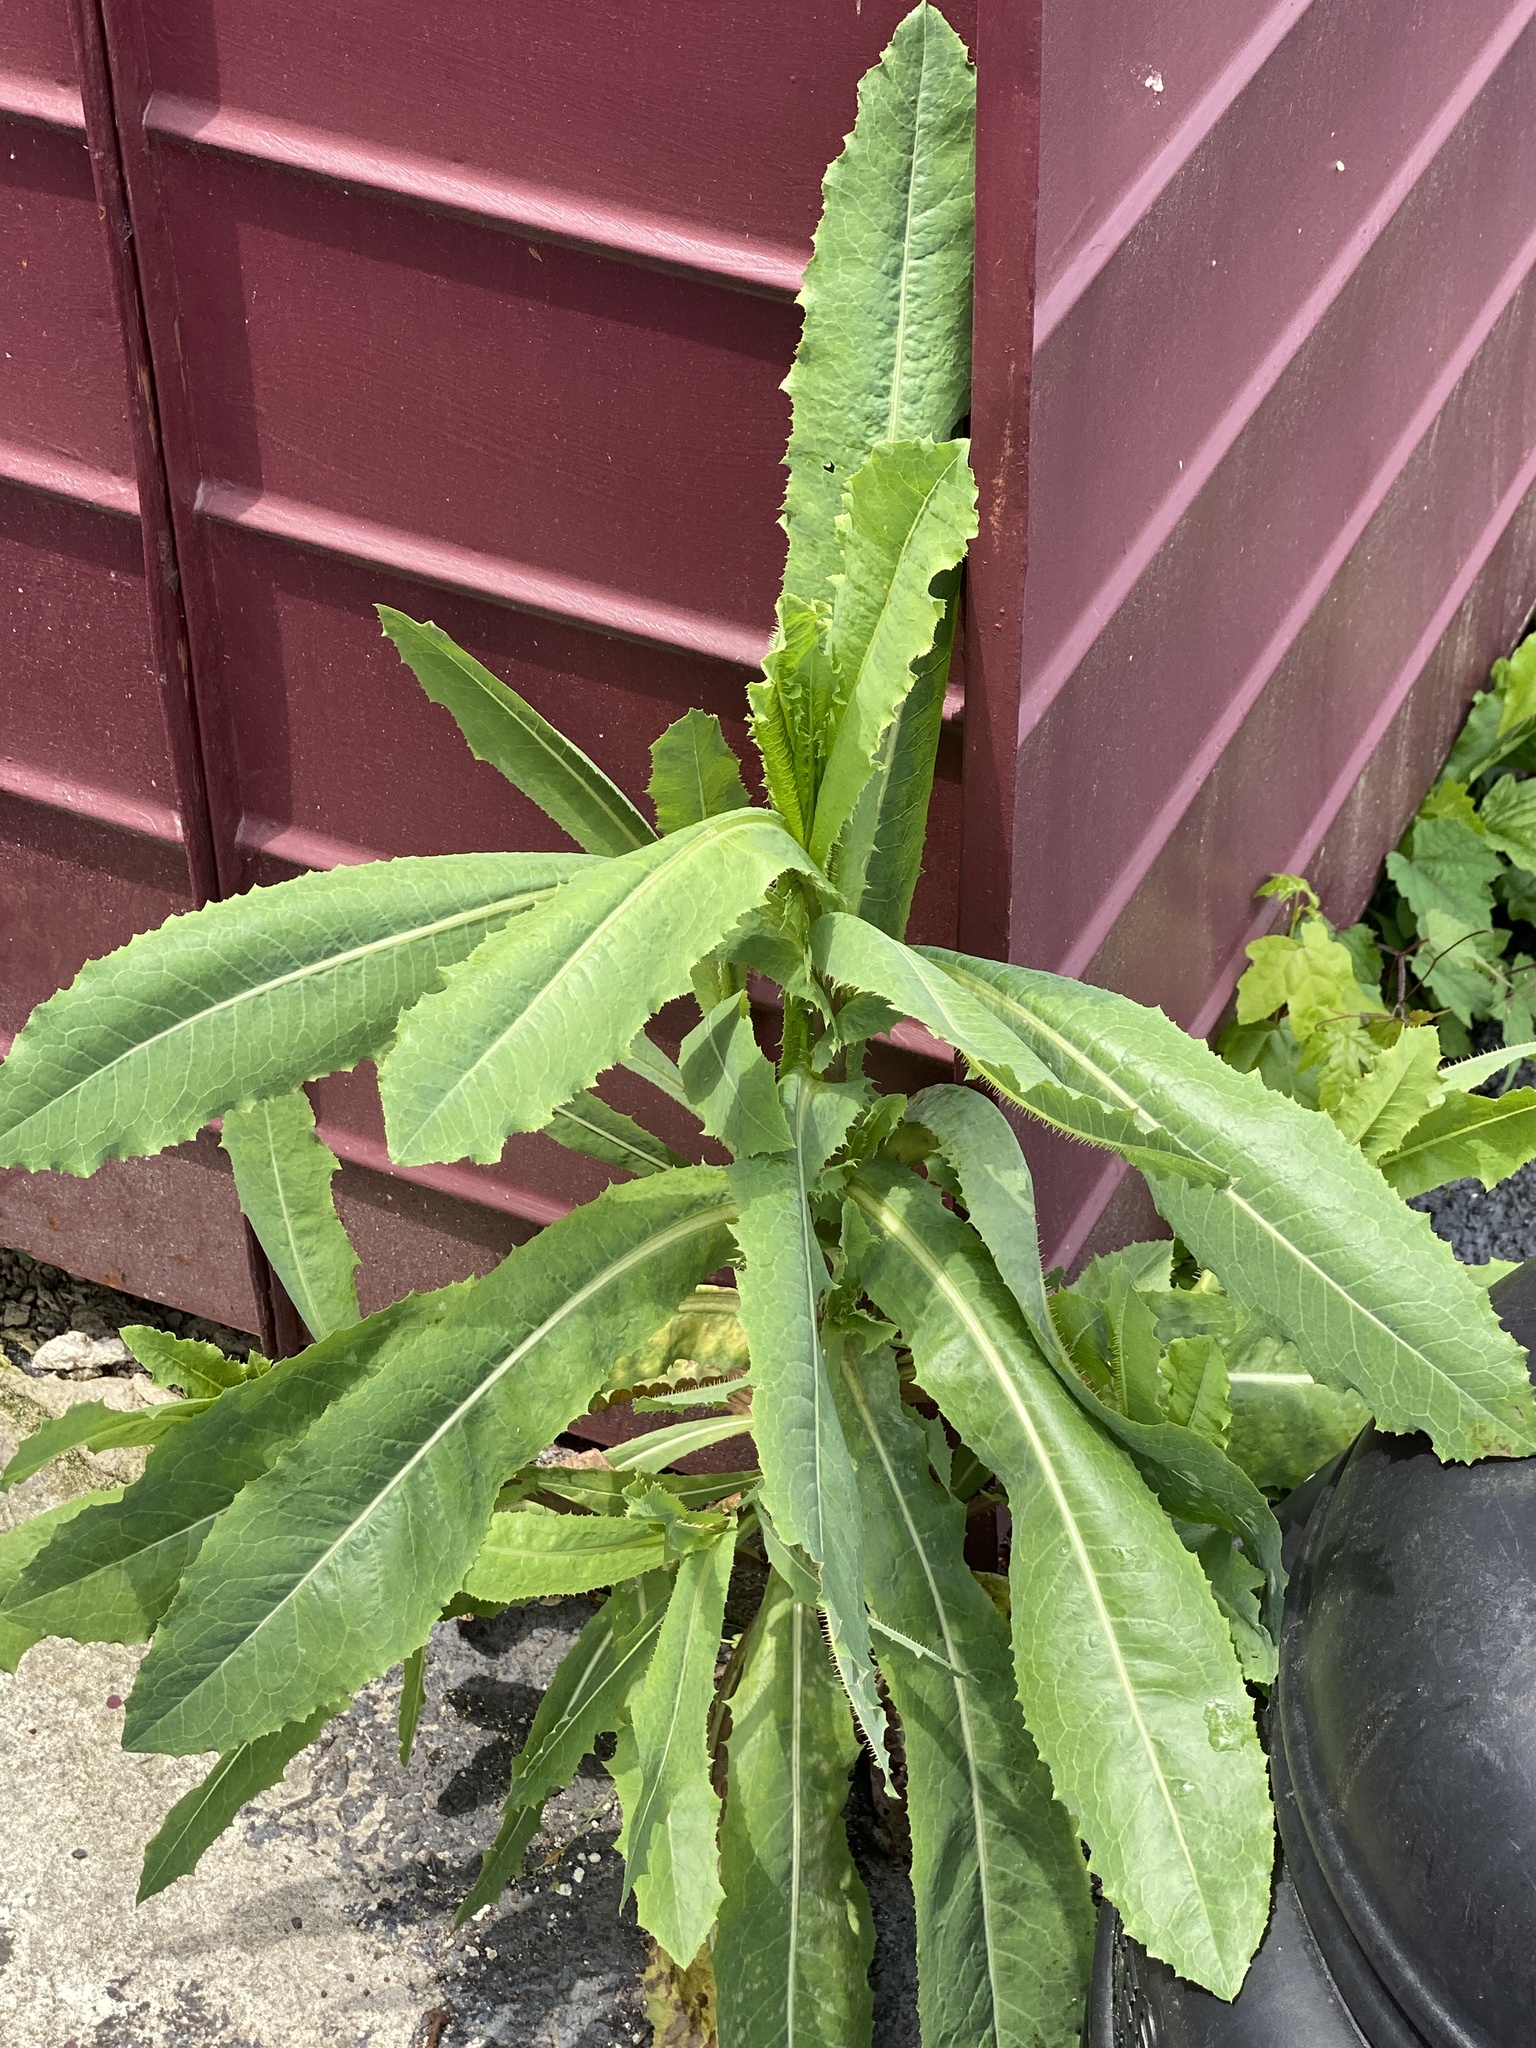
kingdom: Plantae
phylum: Tracheophyta
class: Magnoliopsida
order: Asterales
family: Asteraceae
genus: Lactuca
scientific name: Lactuca serriola
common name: Prickly lettuce
